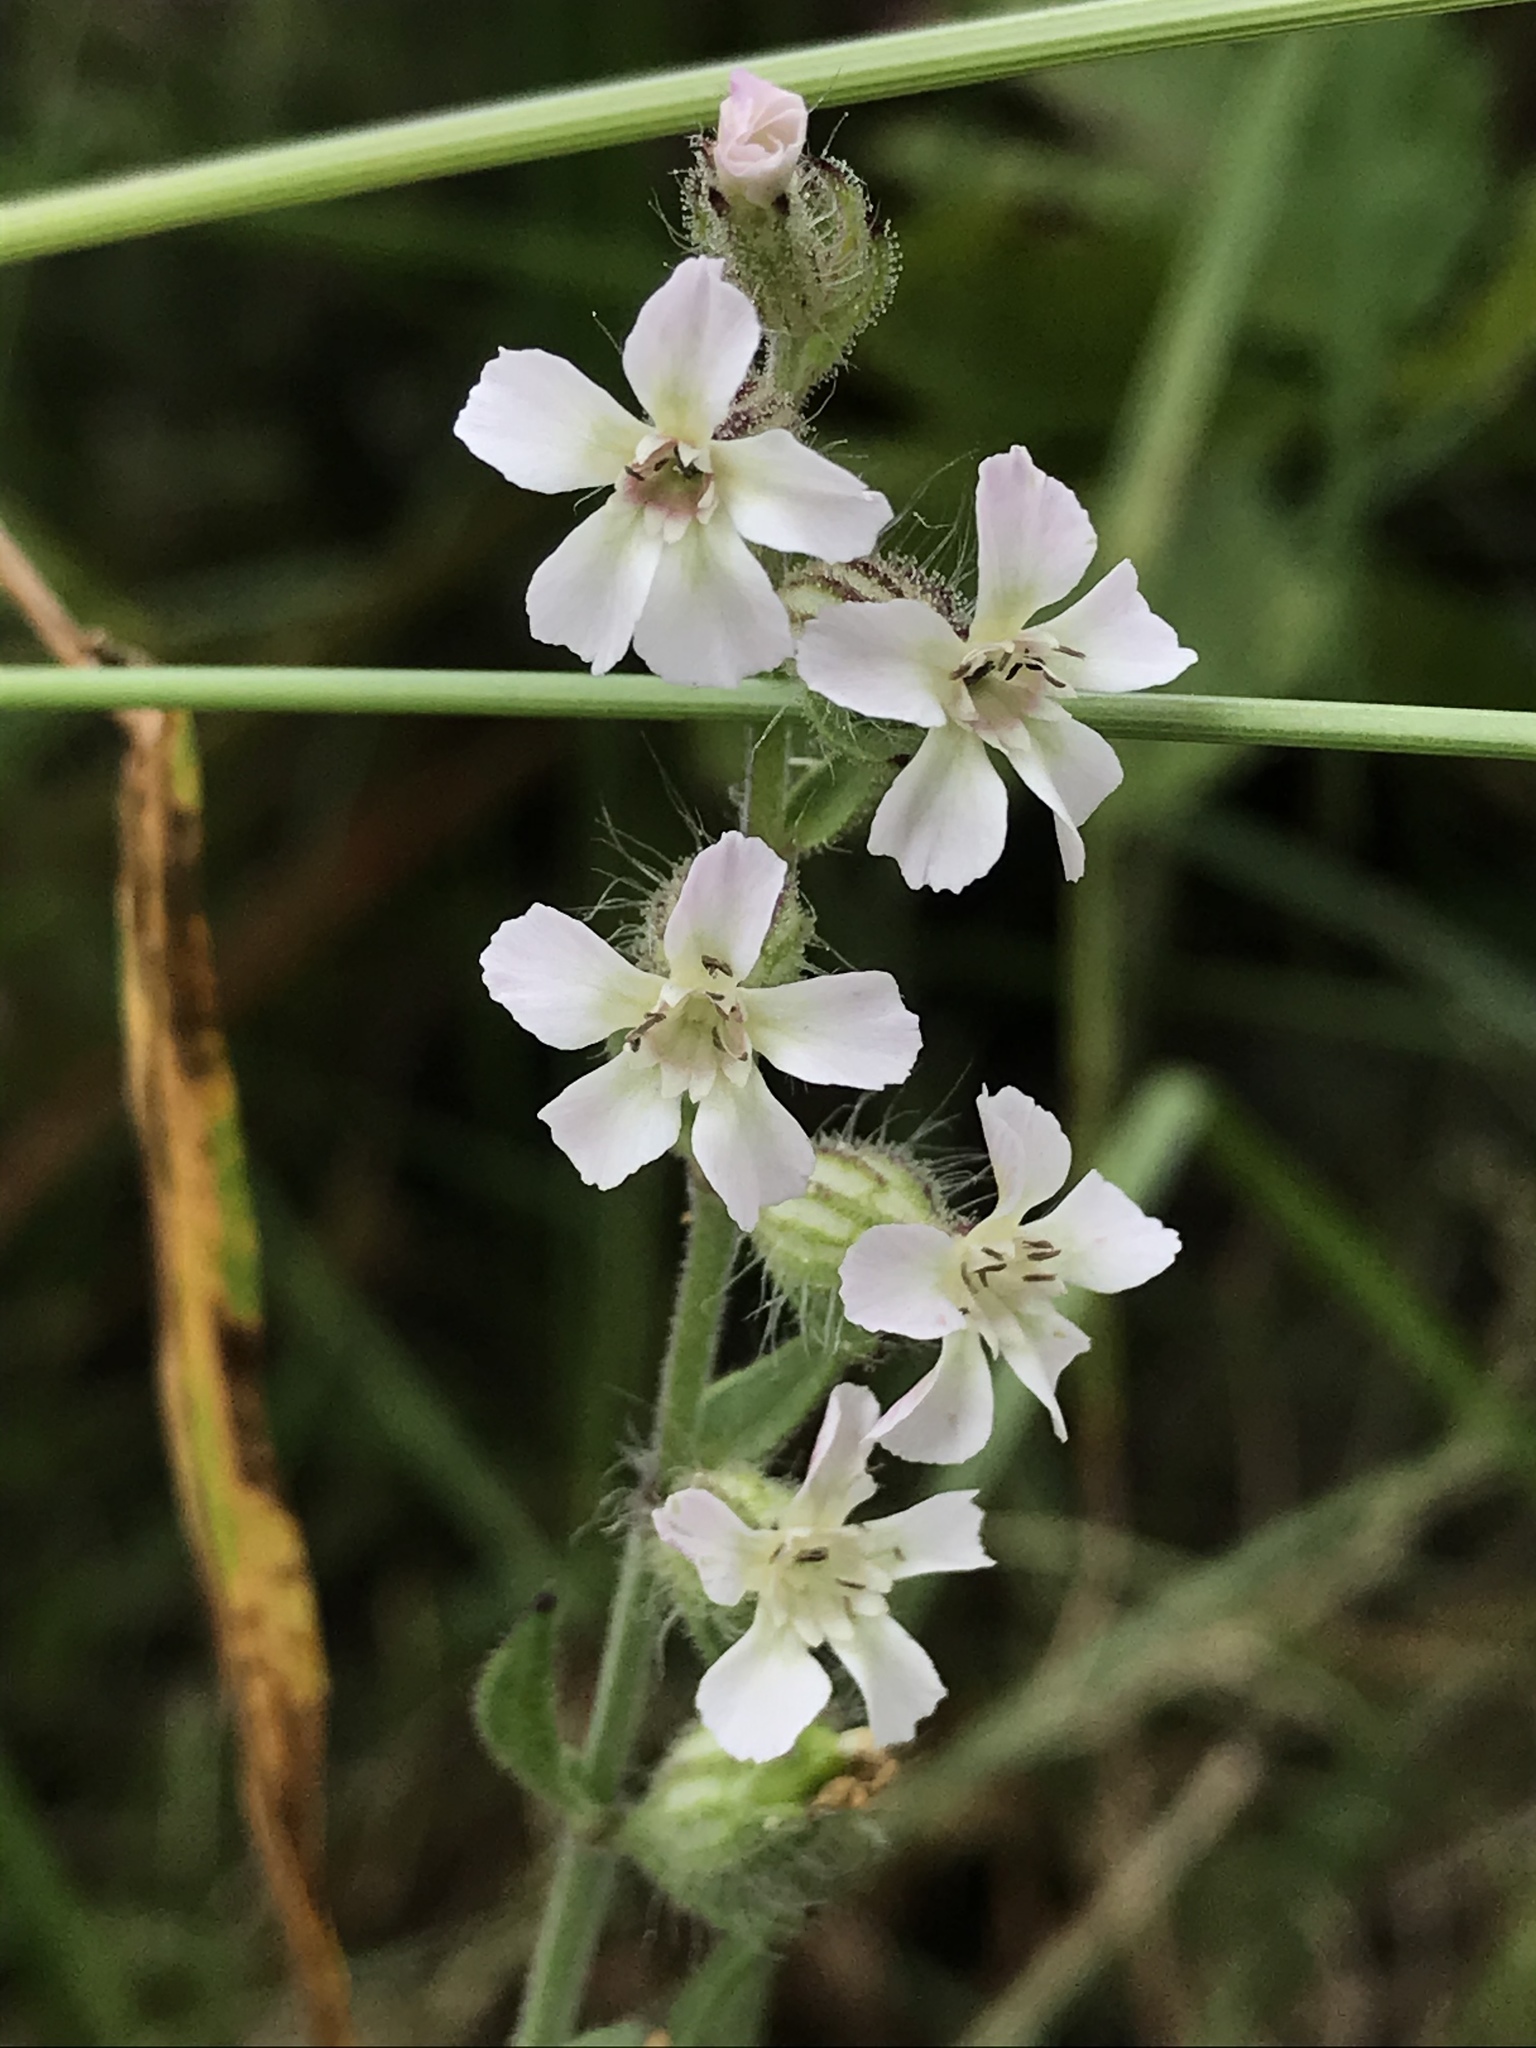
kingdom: Plantae
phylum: Tracheophyta
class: Magnoliopsida
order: Caryophyllales
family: Caryophyllaceae
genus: Silene
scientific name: Silene gallica
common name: Small-flowered catchfly
